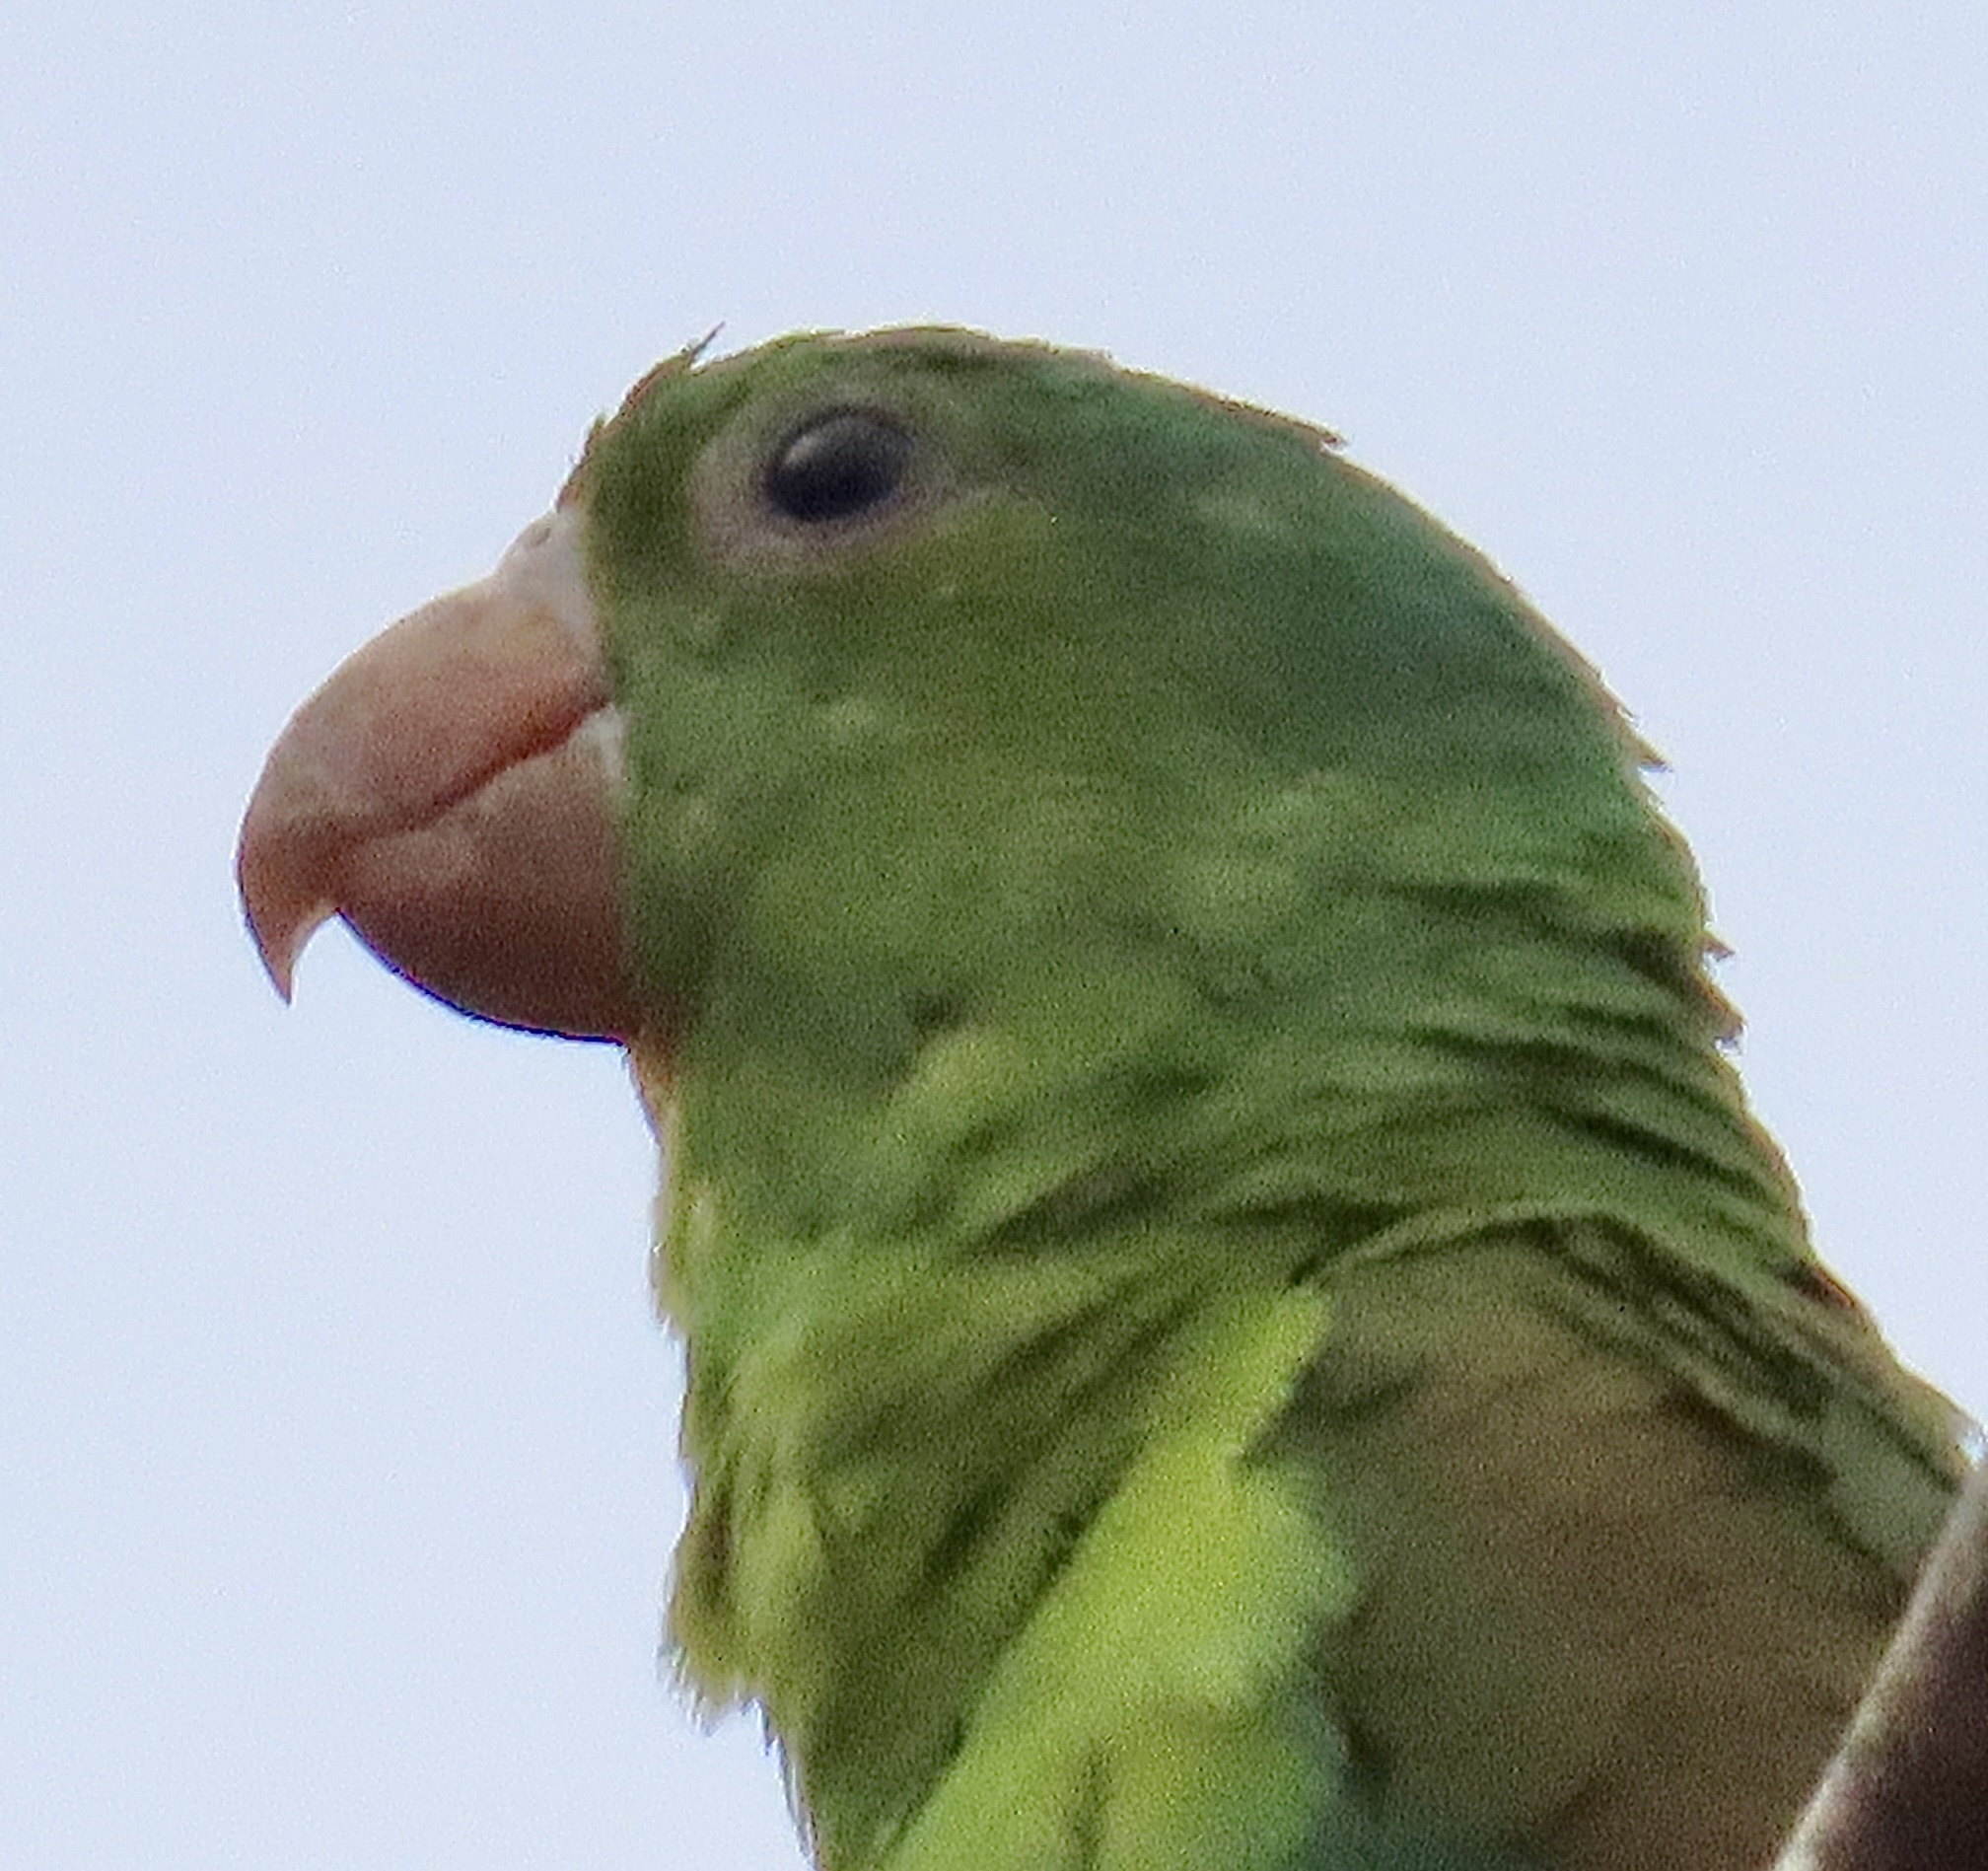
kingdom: Animalia
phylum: Chordata
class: Aves
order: Psittaciformes
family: Psittacidae
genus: Brotogeris
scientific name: Brotogeris jugularis
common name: Orange-chinned parakeet
